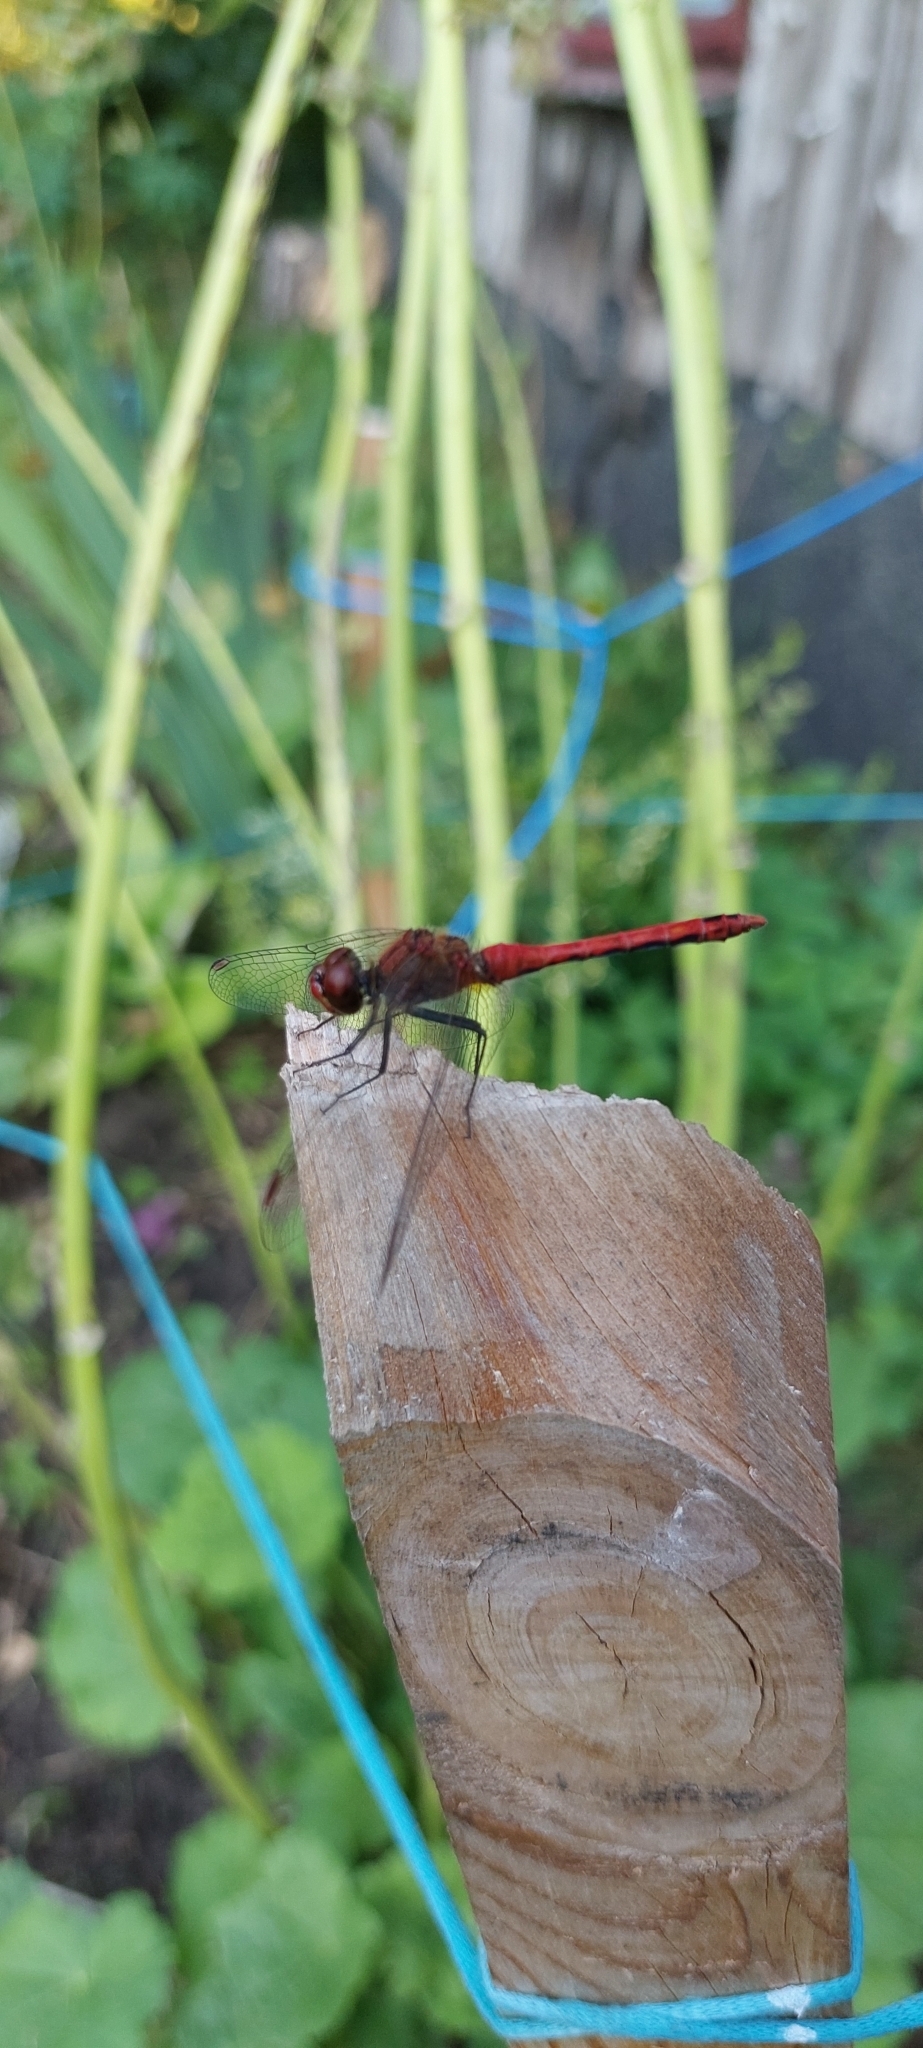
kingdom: Animalia
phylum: Arthropoda
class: Insecta
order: Odonata
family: Libellulidae
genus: Sympetrum
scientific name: Sympetrum sanguineum
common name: Ruddy darter
